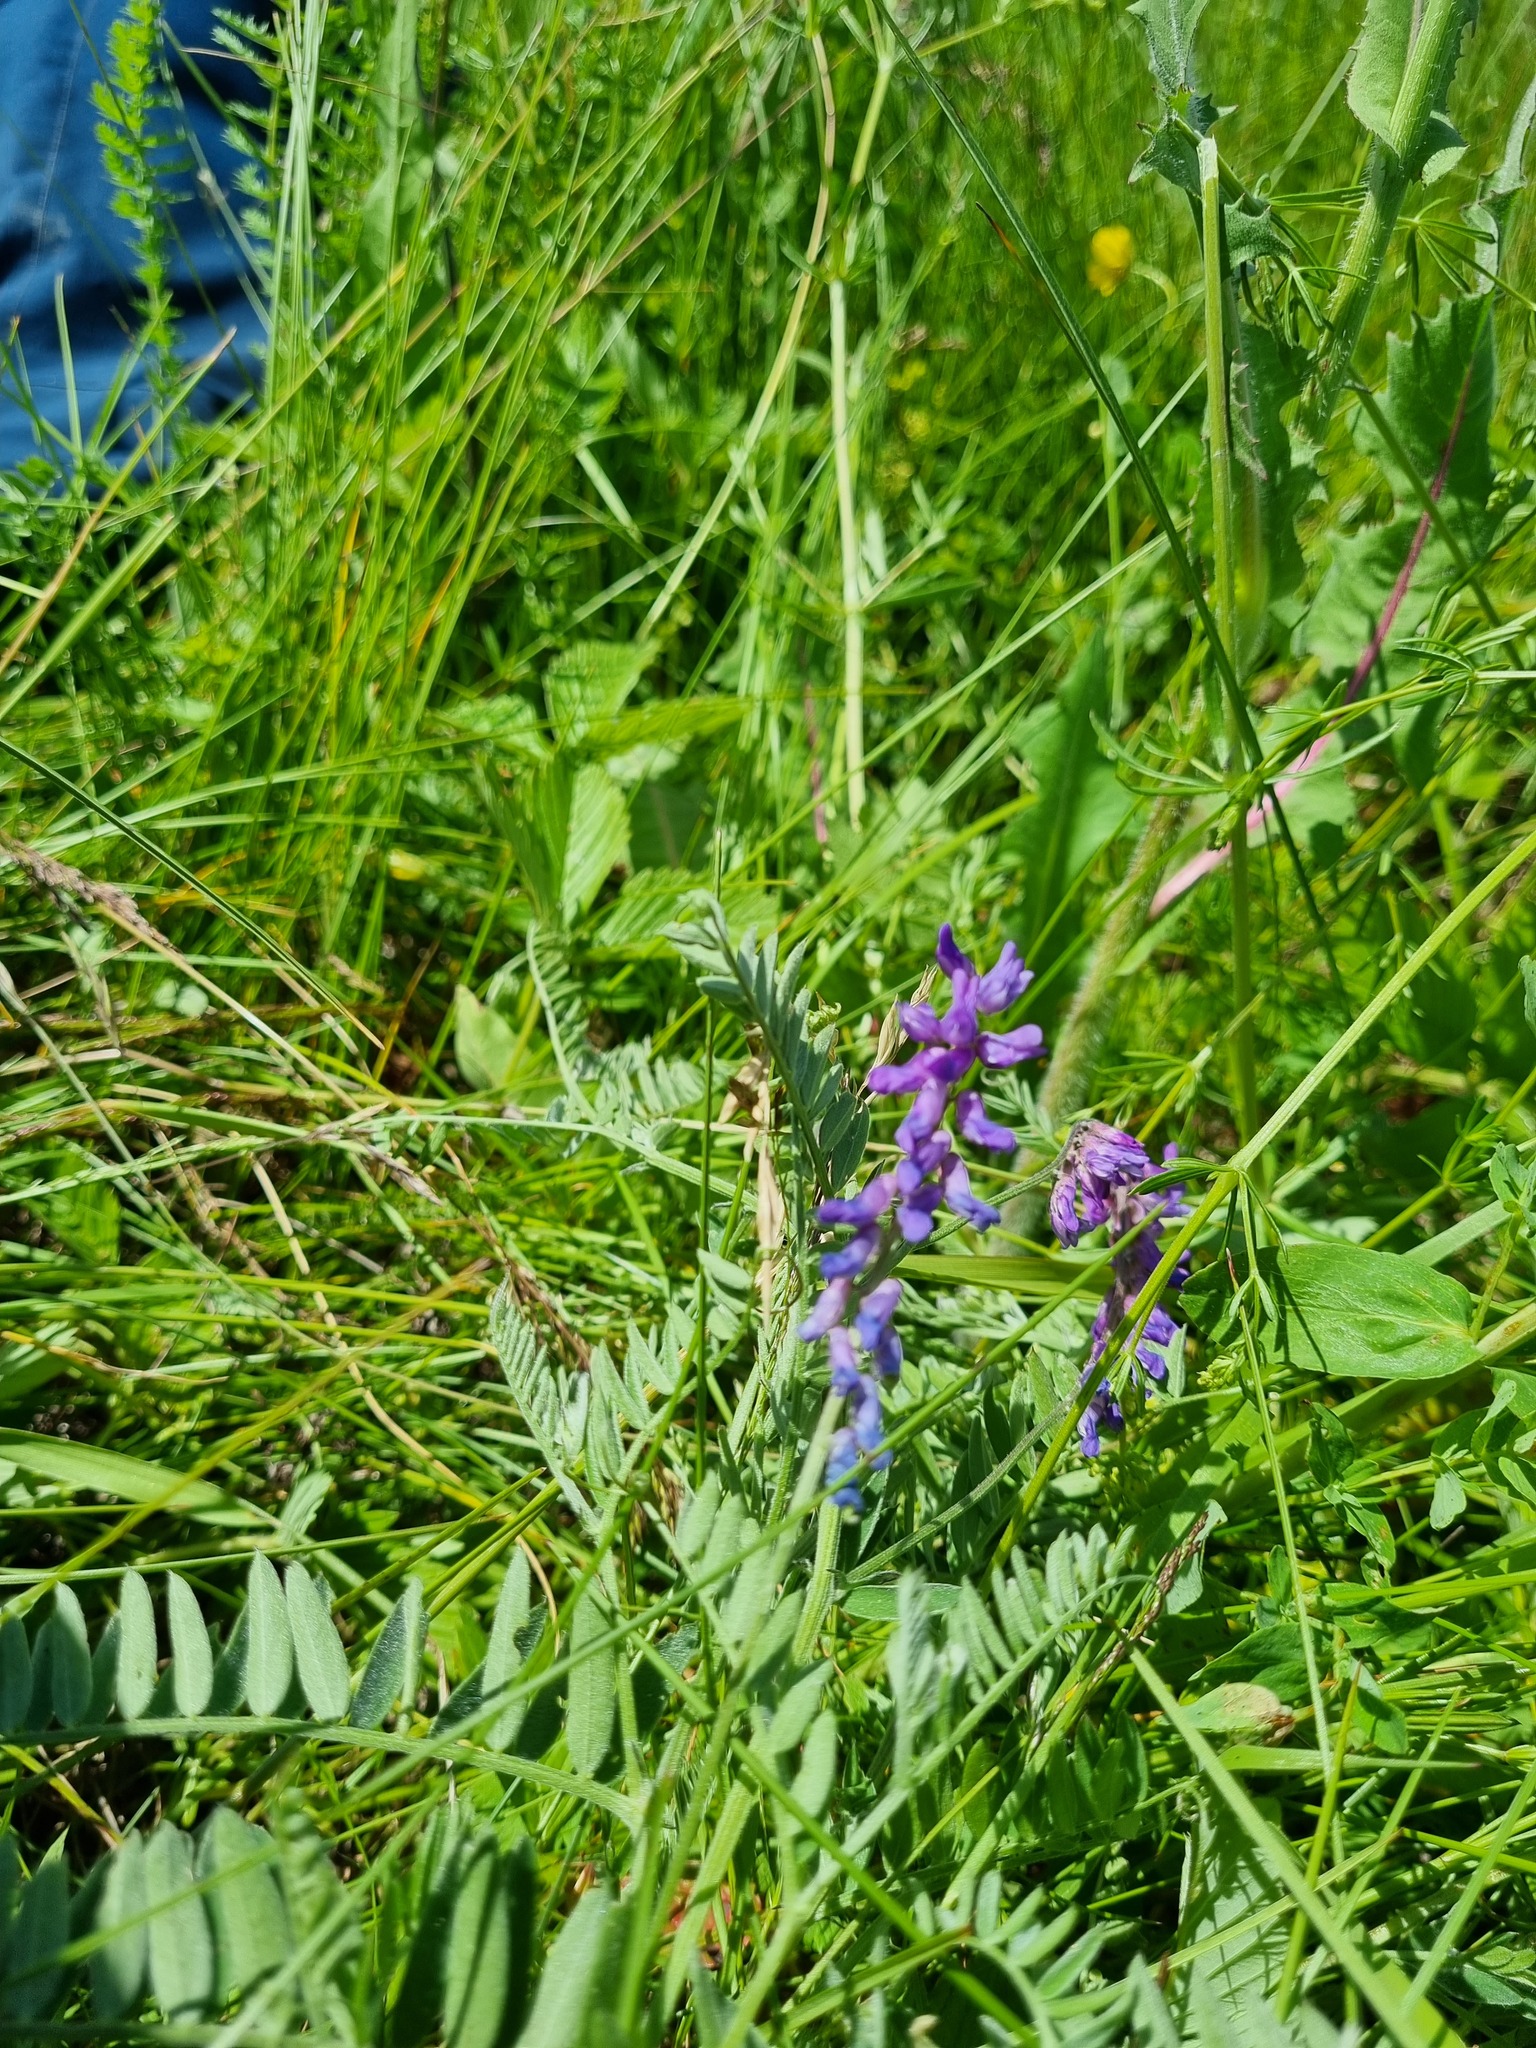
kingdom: Plantae
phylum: Tracheophyta
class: Magnoliopsida
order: Fabales
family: Fabaceae
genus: Vicia
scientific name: Vicia cracca
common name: Bird vetch
